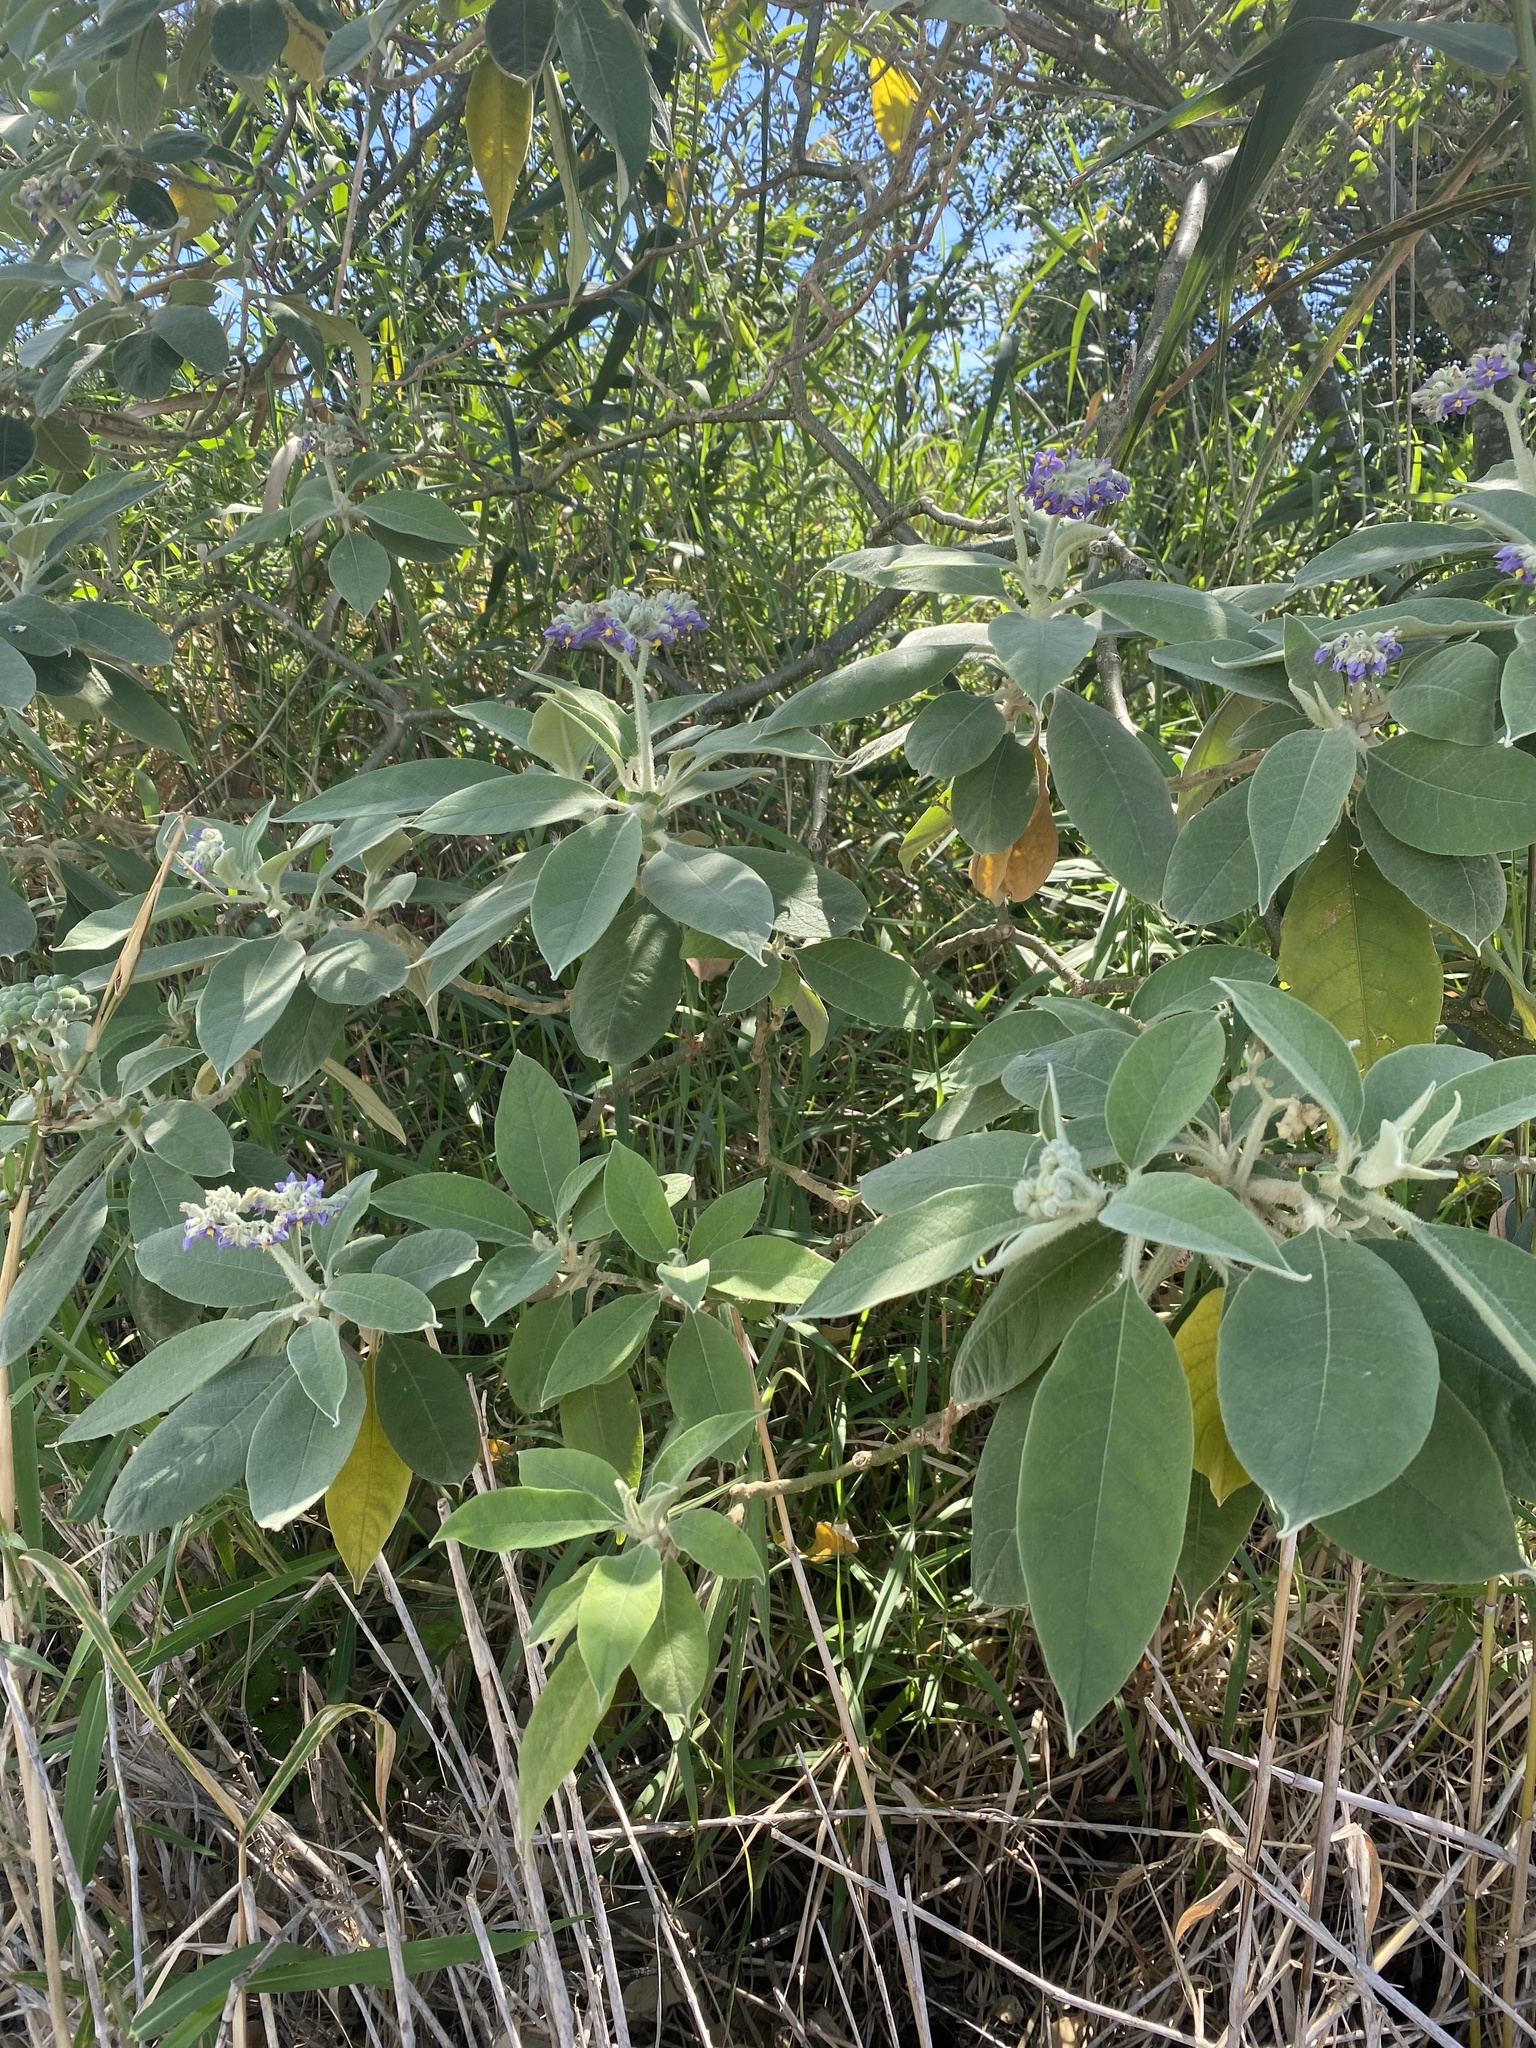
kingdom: Plantae
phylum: Tracheophyta
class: Magnoliopsida
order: Solanales
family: Solanaceae
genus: Solanum
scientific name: Solanum mauritianum
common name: Earleaf nightshade
